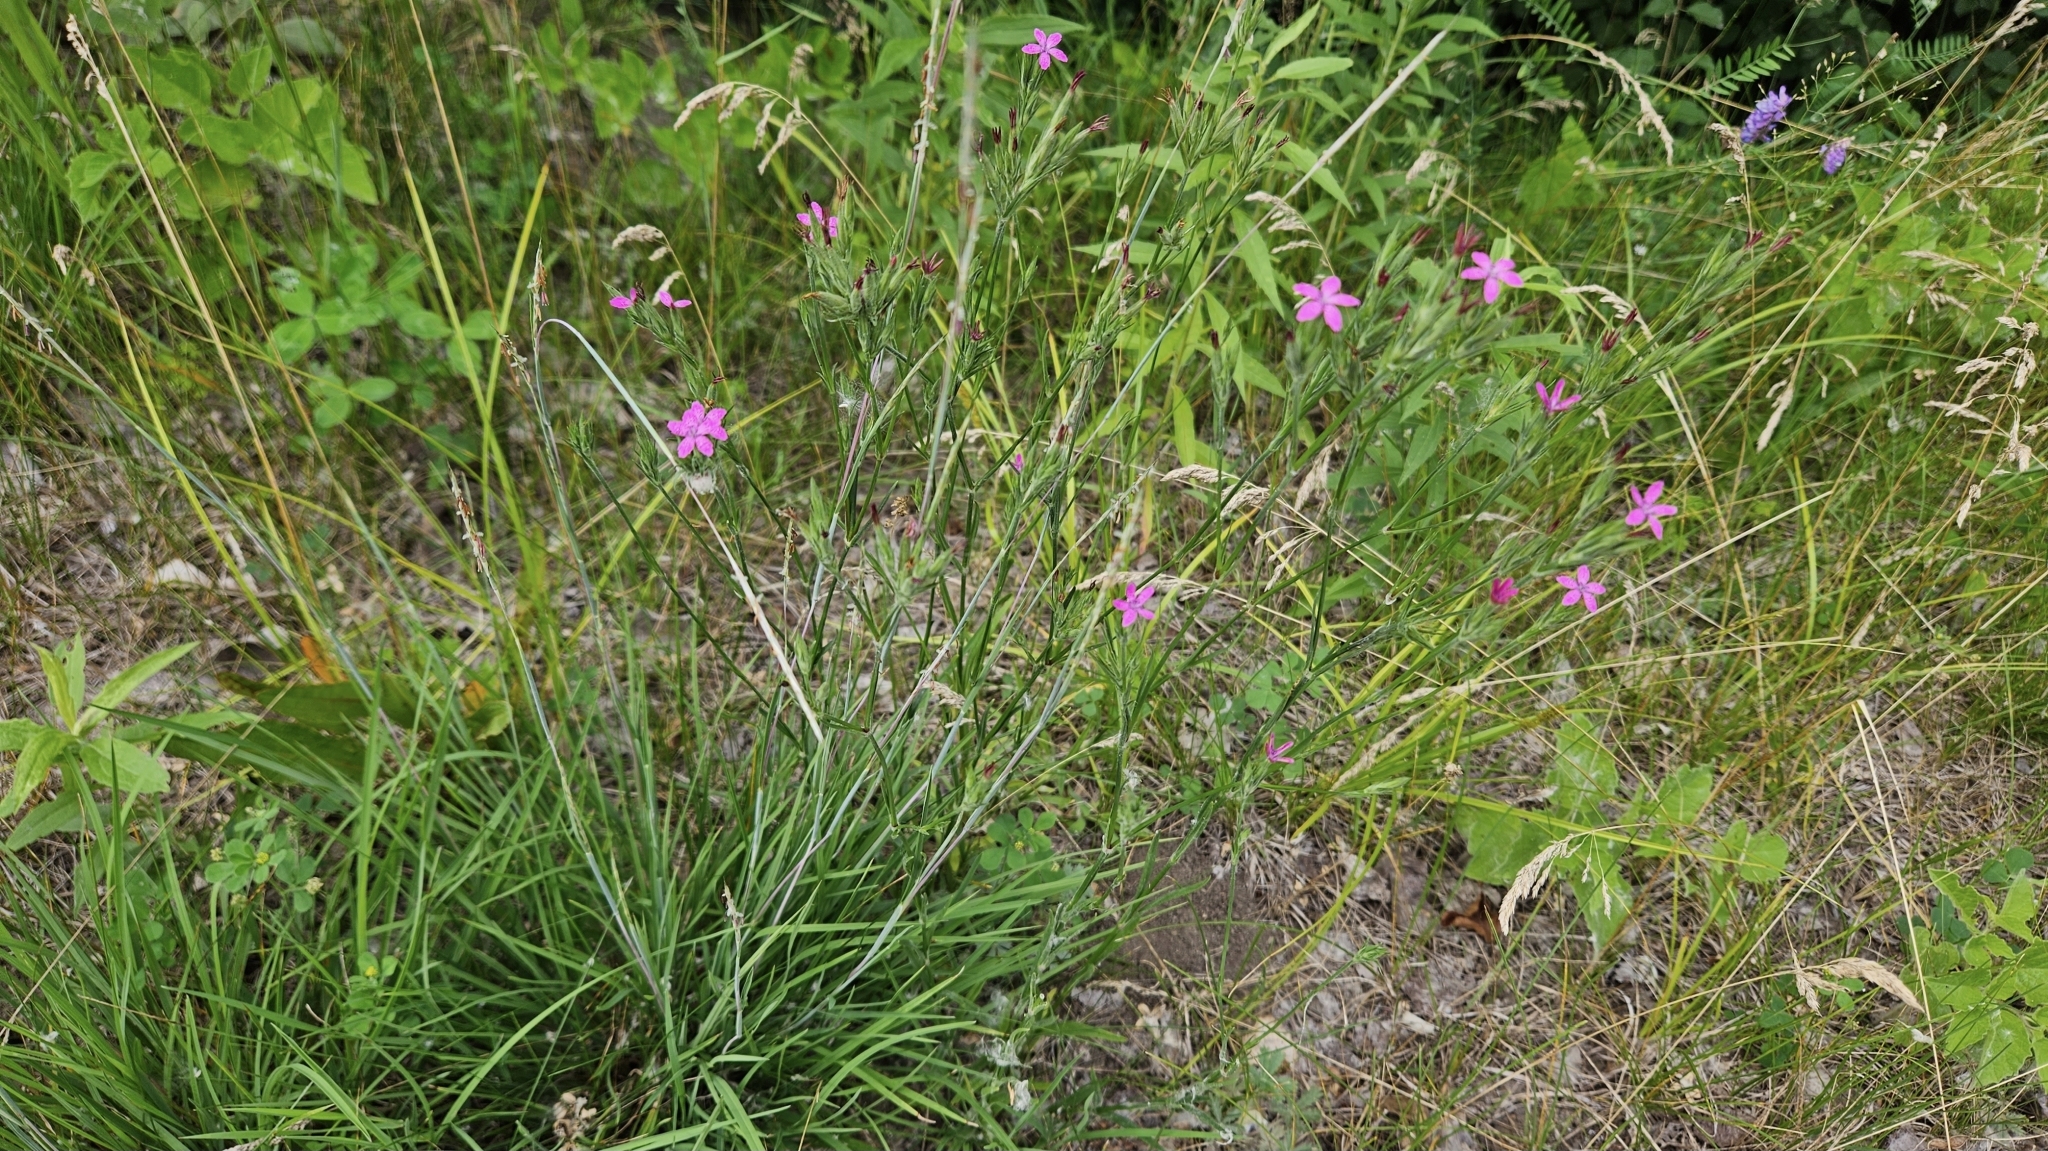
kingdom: Plantae
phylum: Tracheophyta
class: Magnoliopsida
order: Caryophyllales
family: Caryophyllaceae
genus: Dianthus
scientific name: Dianthus armeria
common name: Deptford pink
